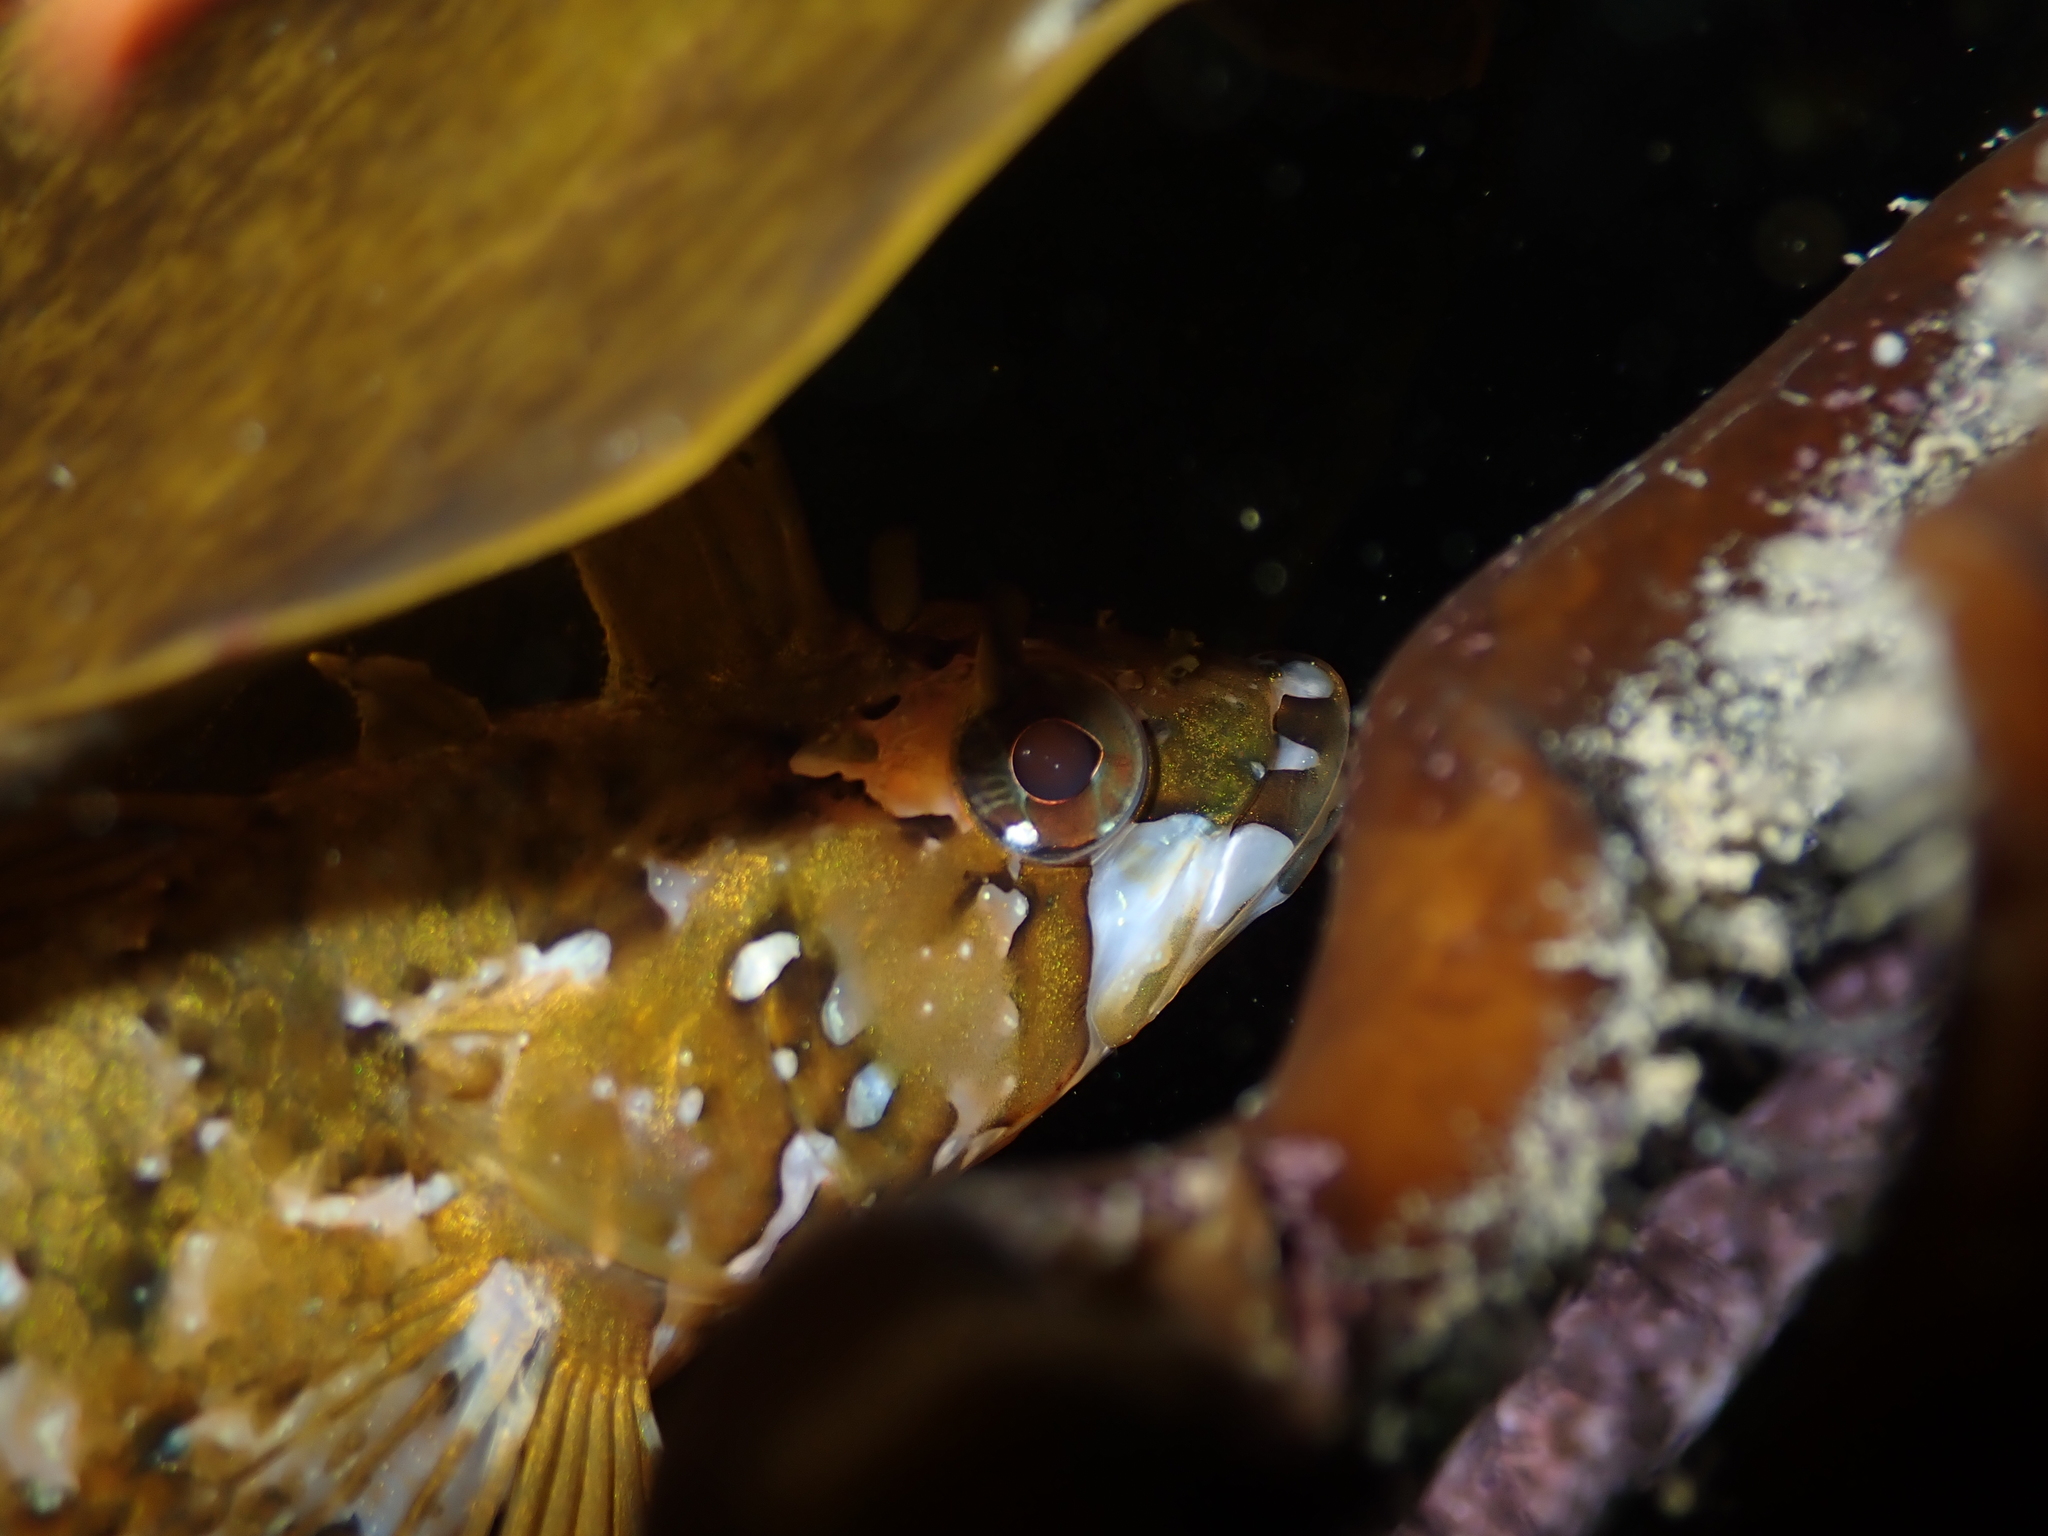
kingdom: Animalia
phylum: Chordata
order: Perciformes
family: Tripterygiidae
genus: Notoclinus
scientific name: Notoclinus fenestratus
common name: New zealand topknot
